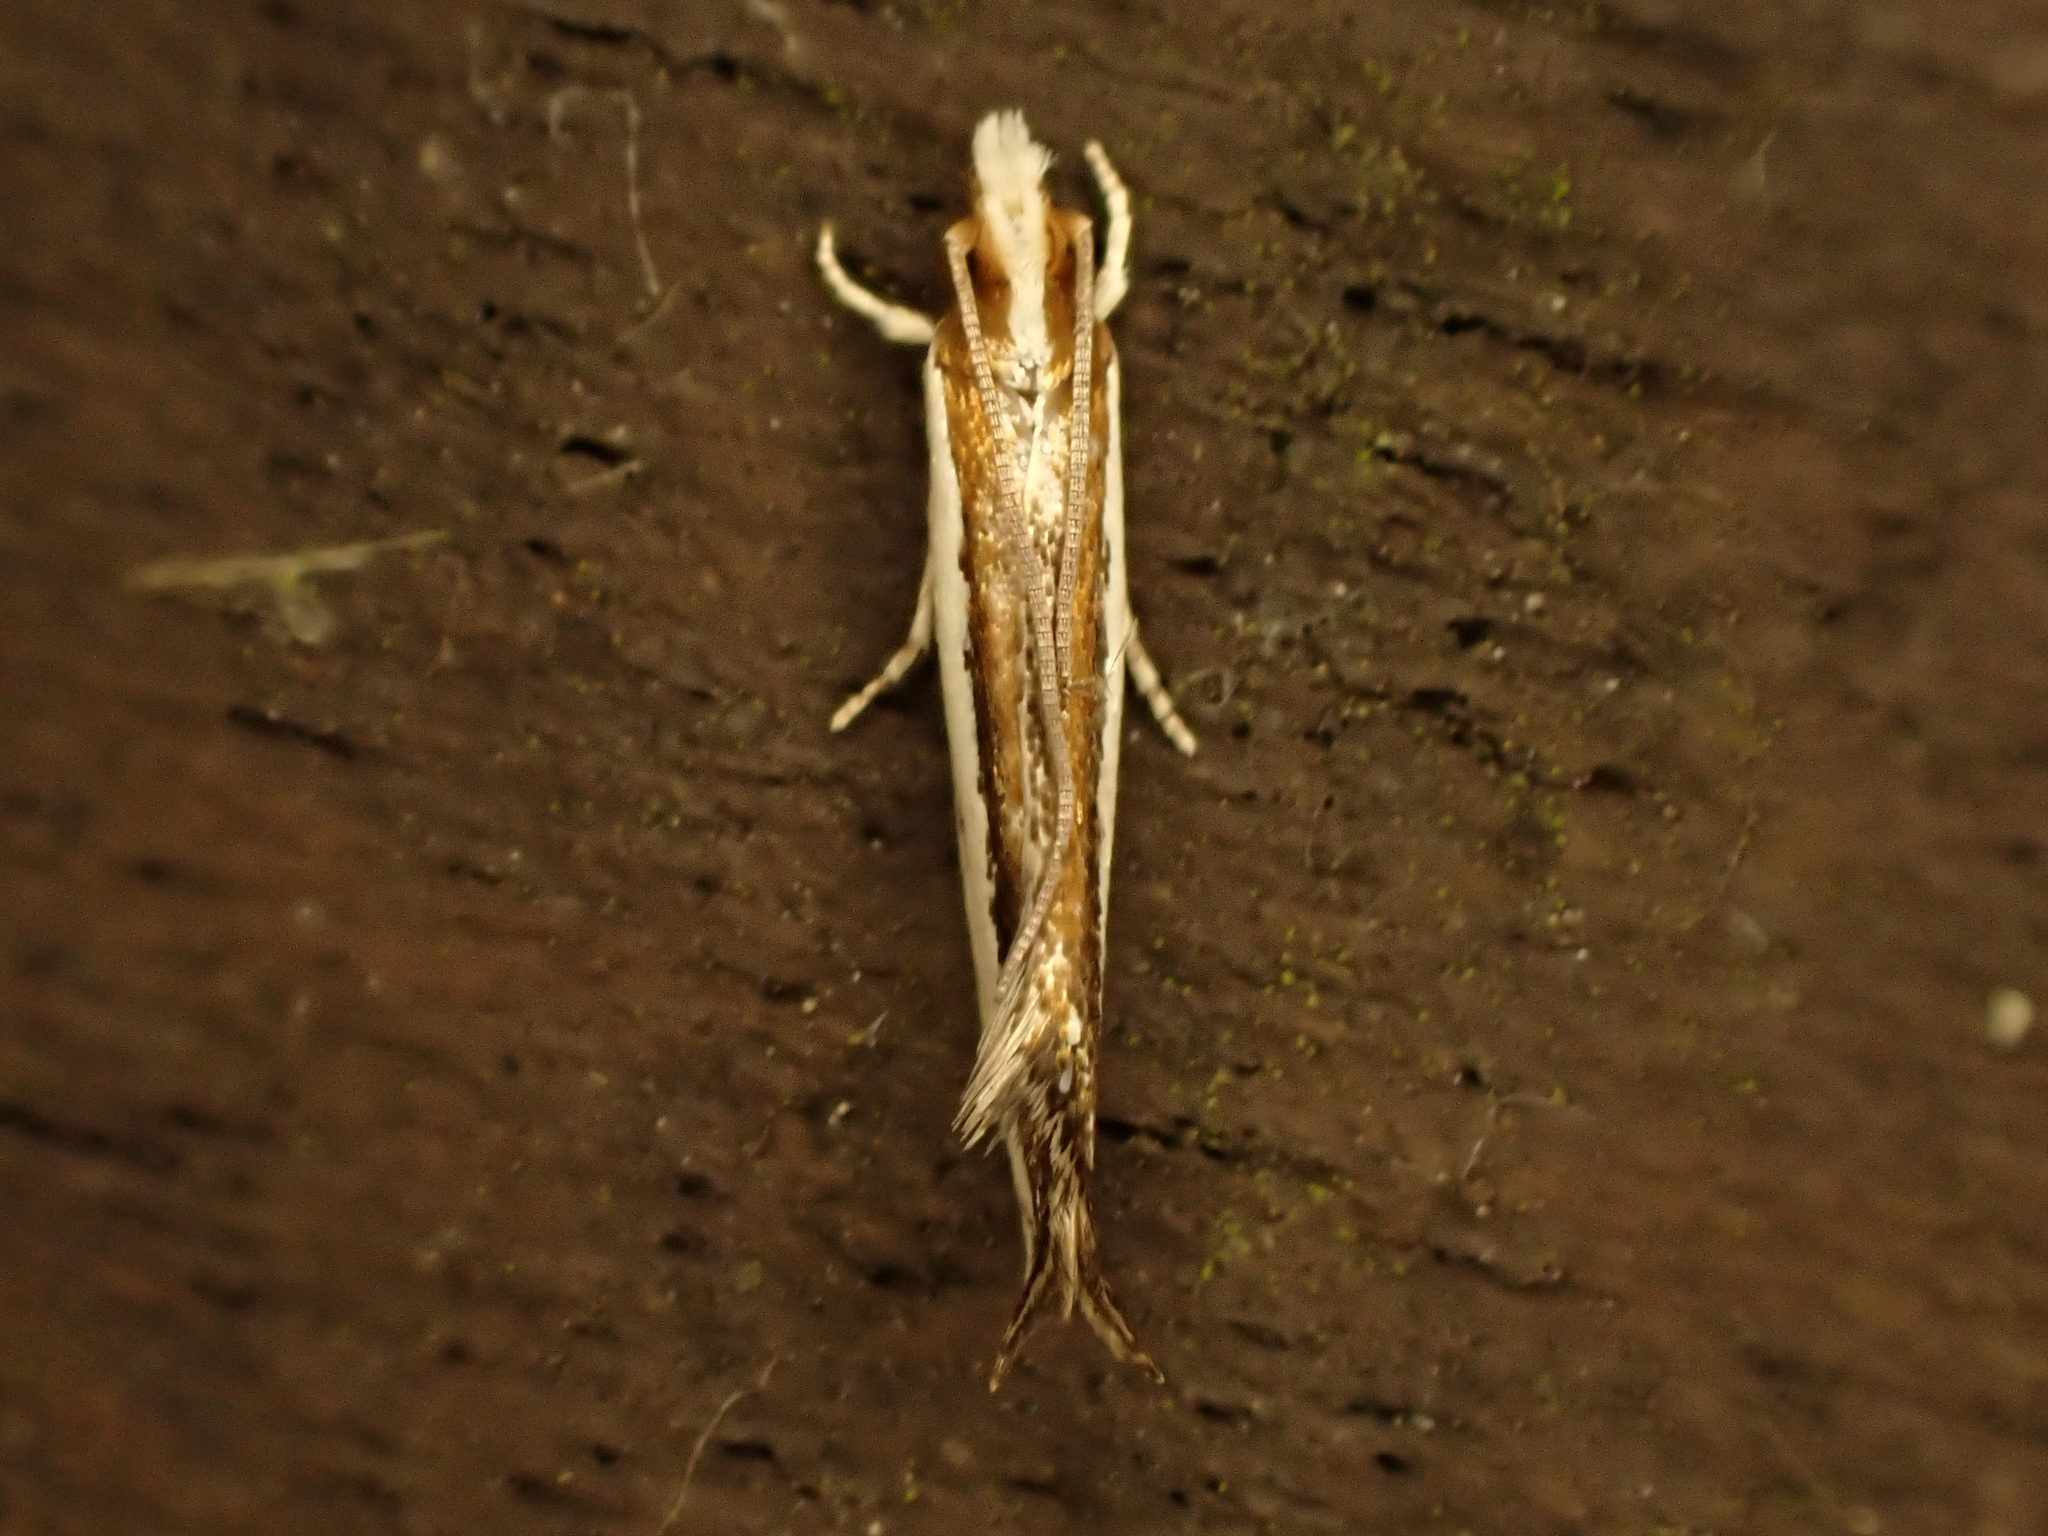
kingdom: Animalia
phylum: Arthropoda
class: Insecta
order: Lepidoptera
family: Tineidae
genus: Erechthias
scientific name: Erechthias chionodira
